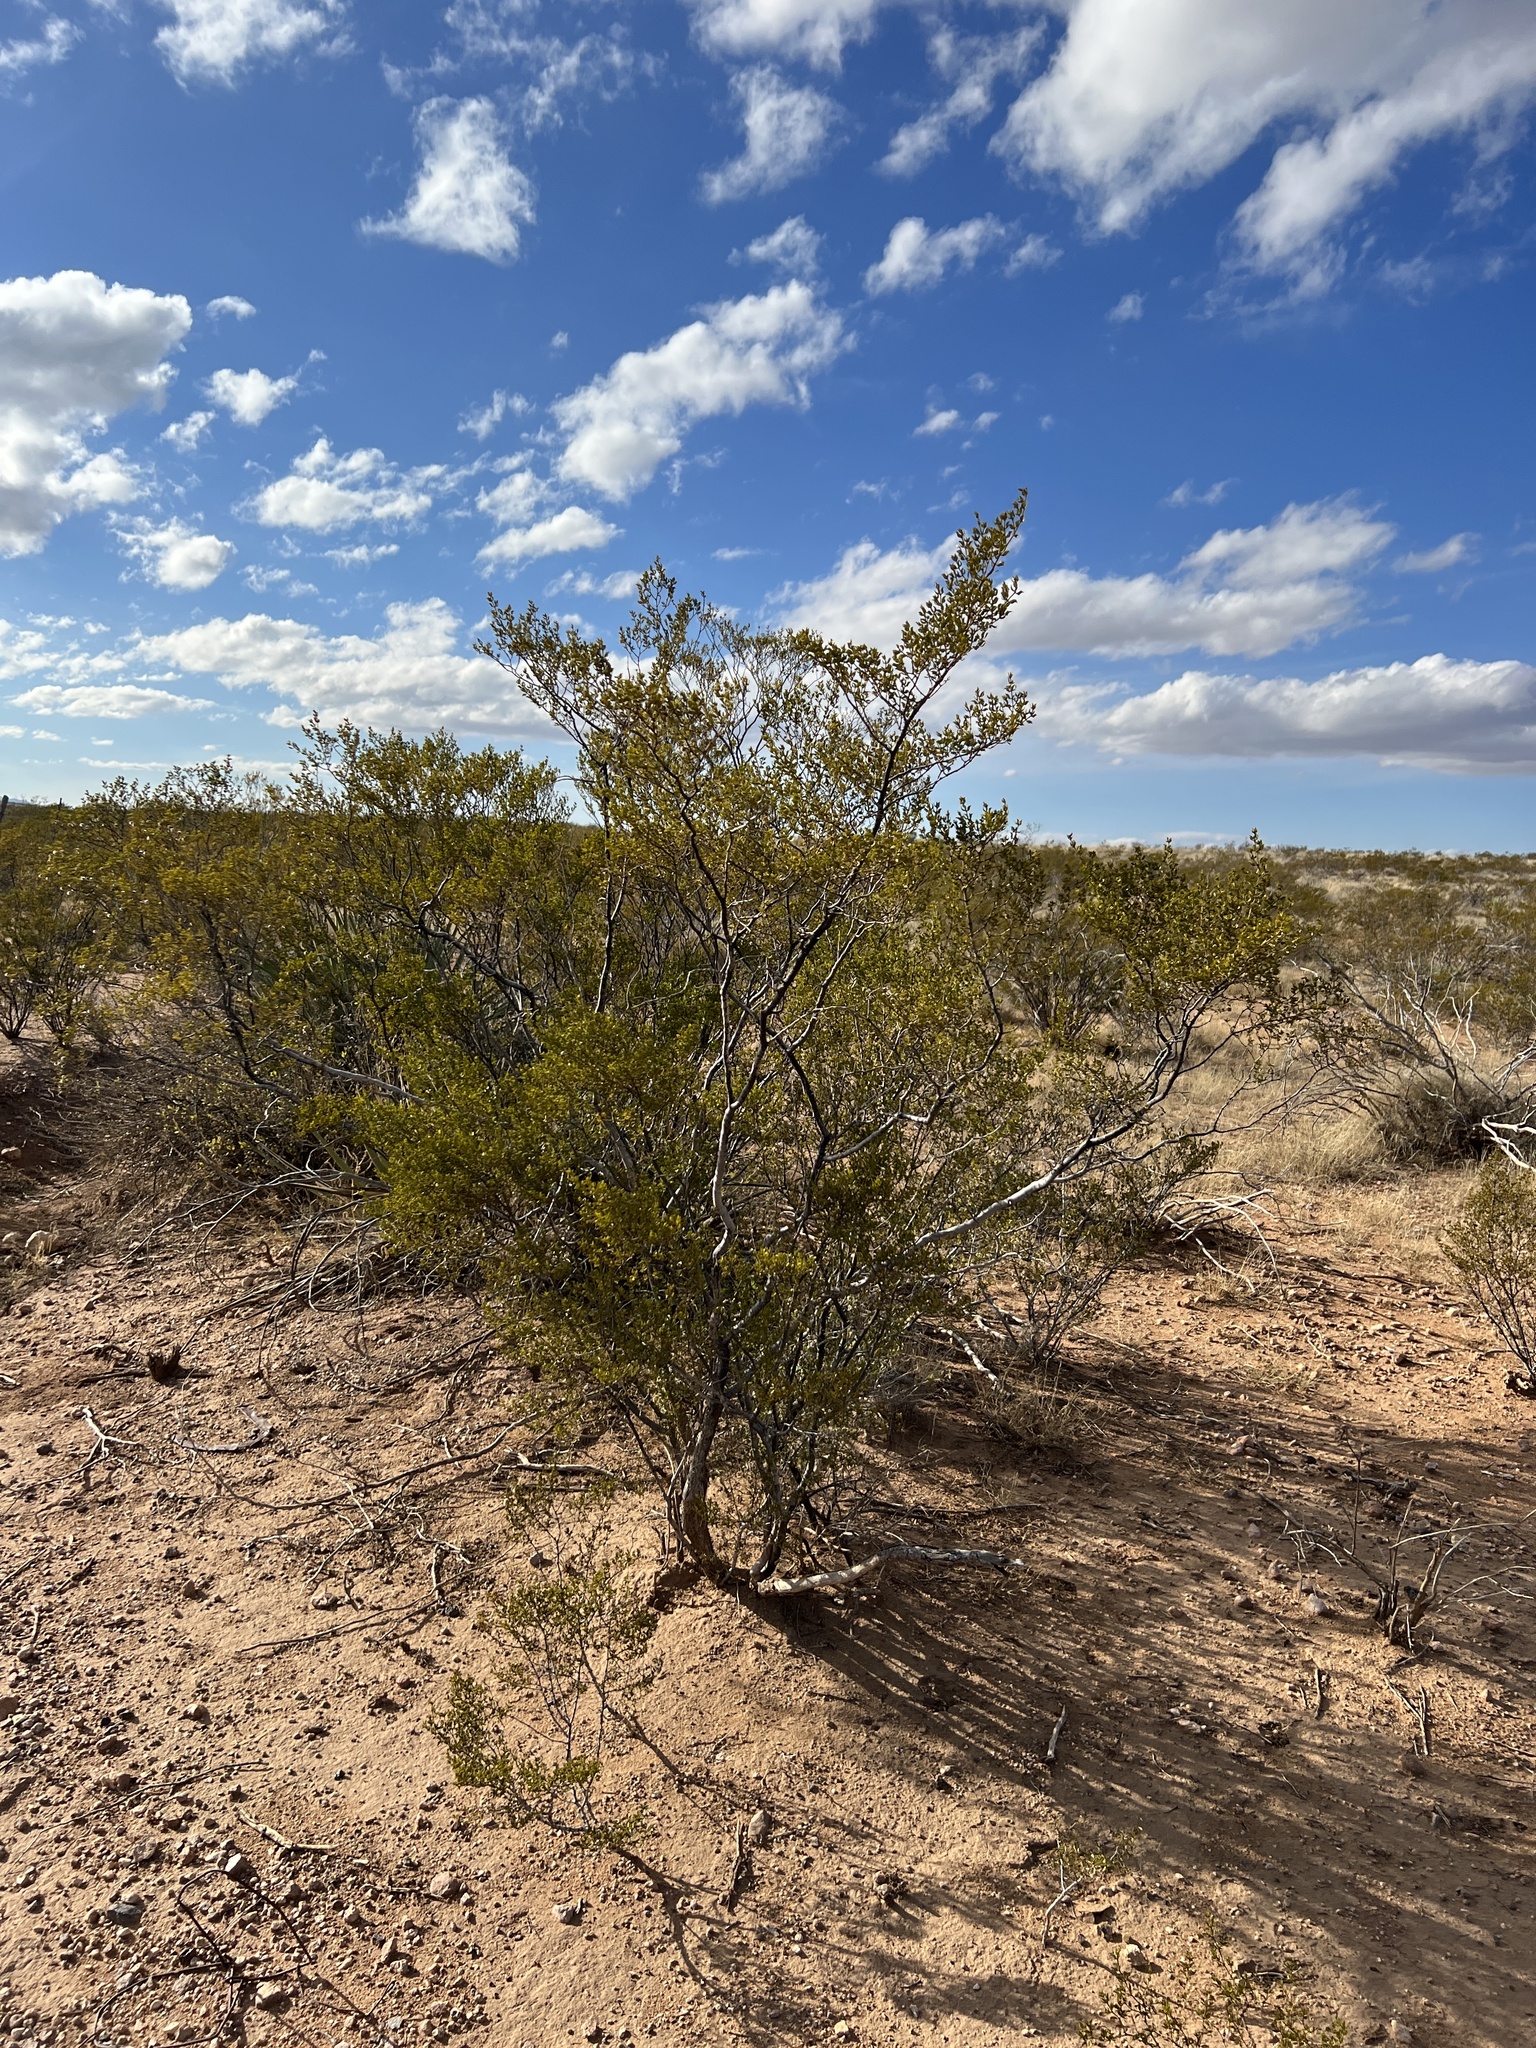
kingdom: Plantae
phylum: Tracheophyta
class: Magnoliopsida
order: Zygophyllales
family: Zygophyllaceae
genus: Larrea
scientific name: Larrea tridentata
